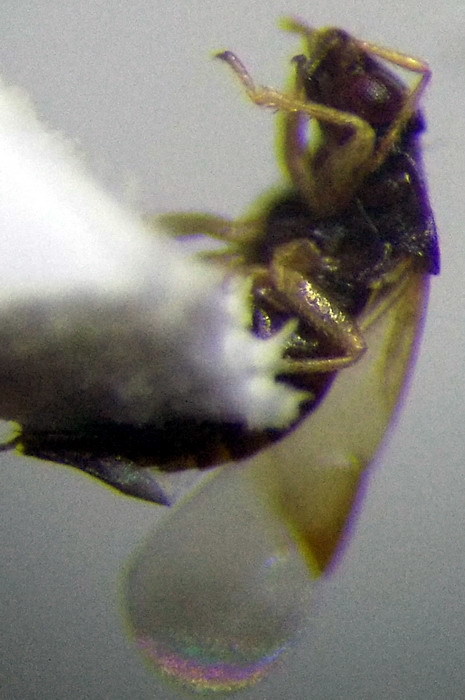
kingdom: Animalia
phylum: Arthropoda
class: Insecta
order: Hemiptera
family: Anthocoridae
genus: Orius
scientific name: Orius minutus
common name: Minute pirate bug
